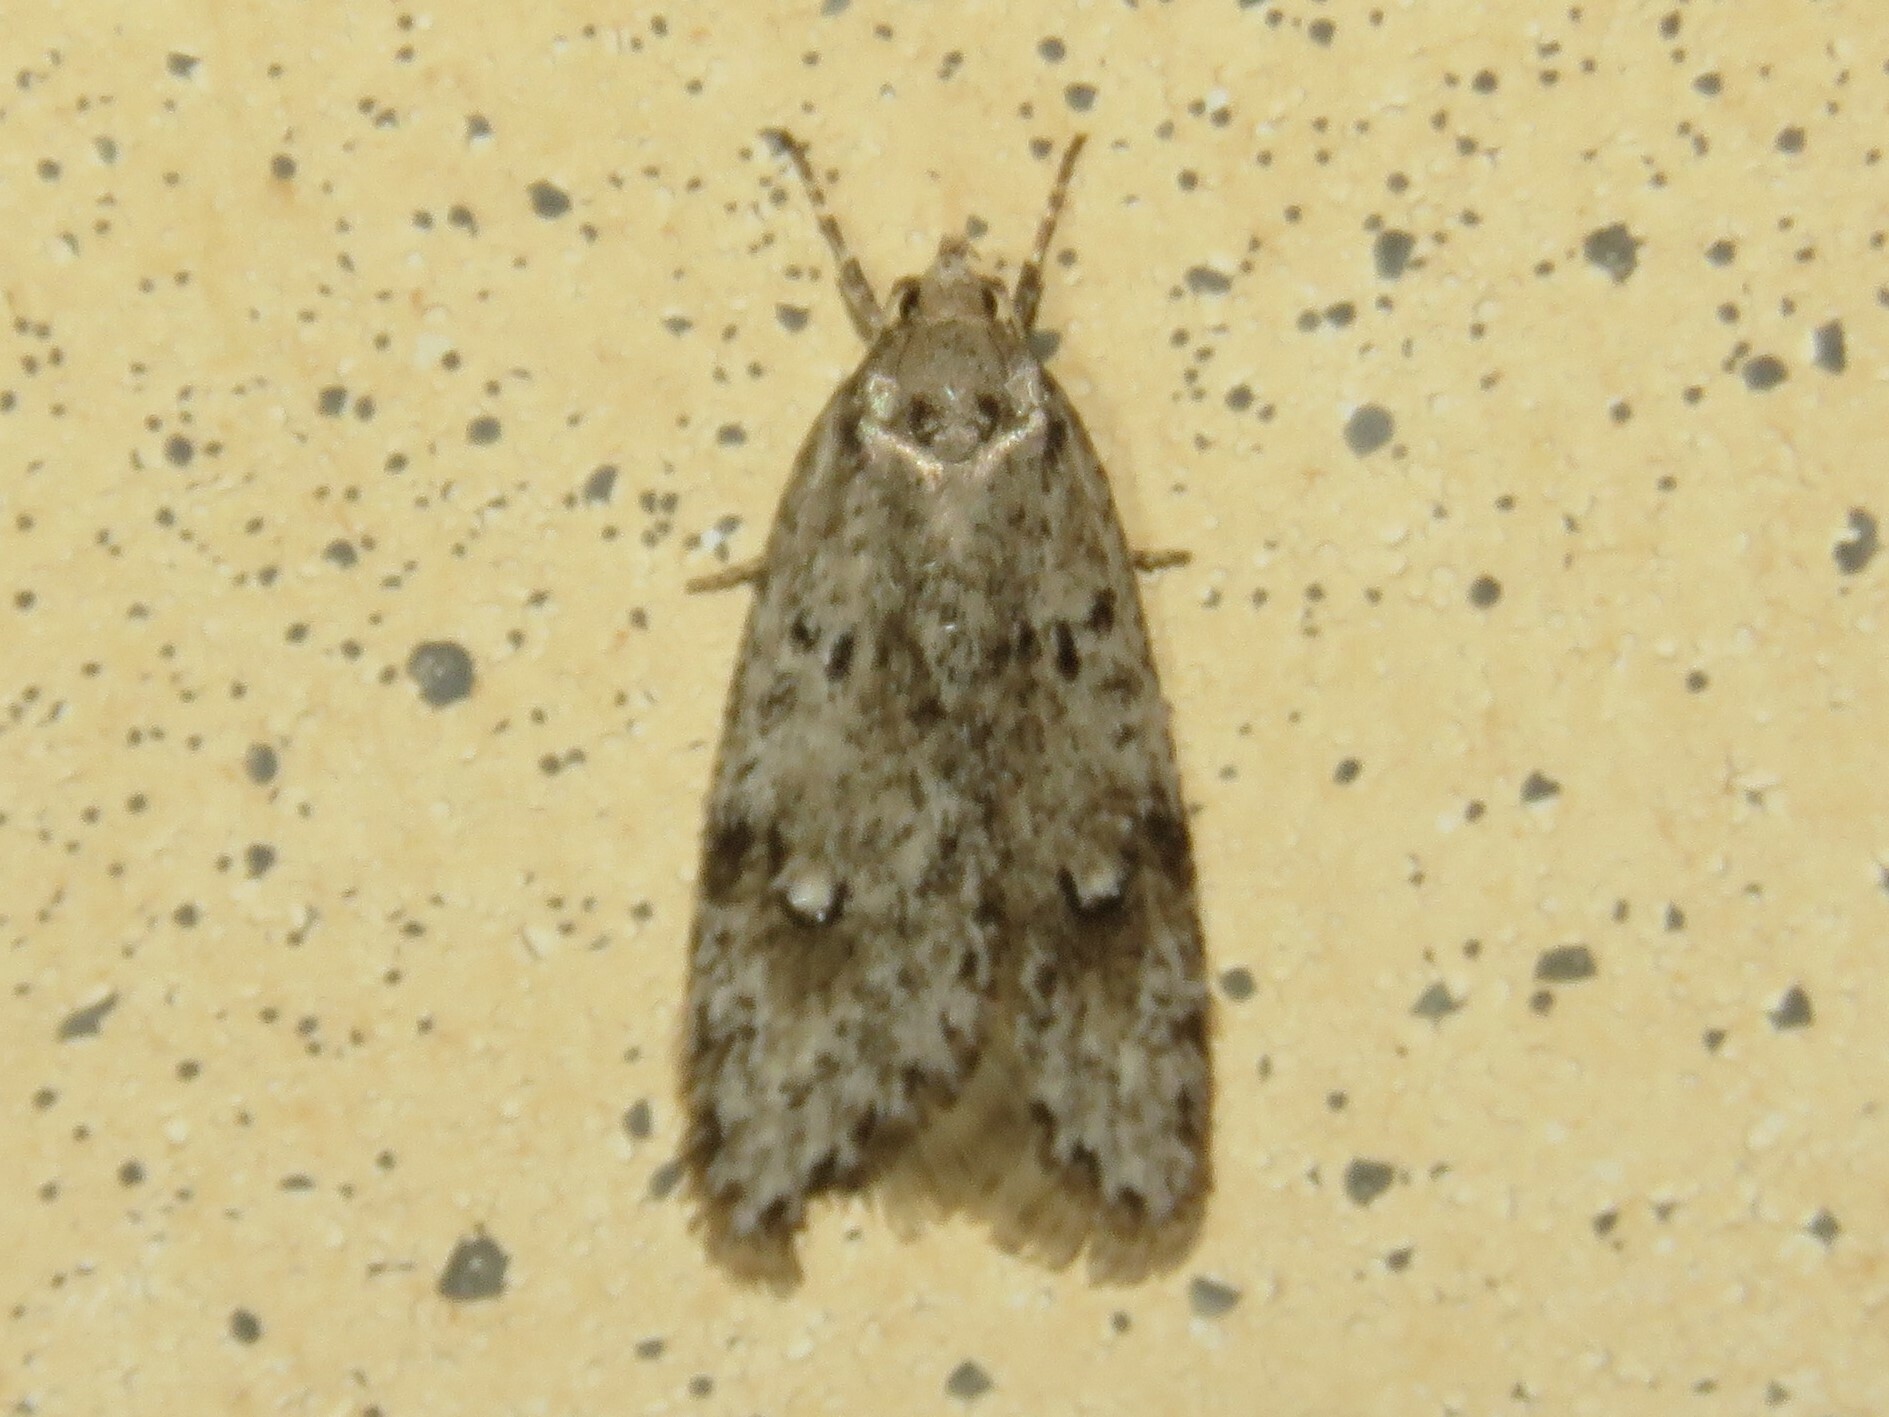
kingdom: Animalia
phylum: Arthropoda
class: Insecta
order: Lepidoptera
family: Depressariidae
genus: Semioscopis
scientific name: Semioscopis megamicrella
